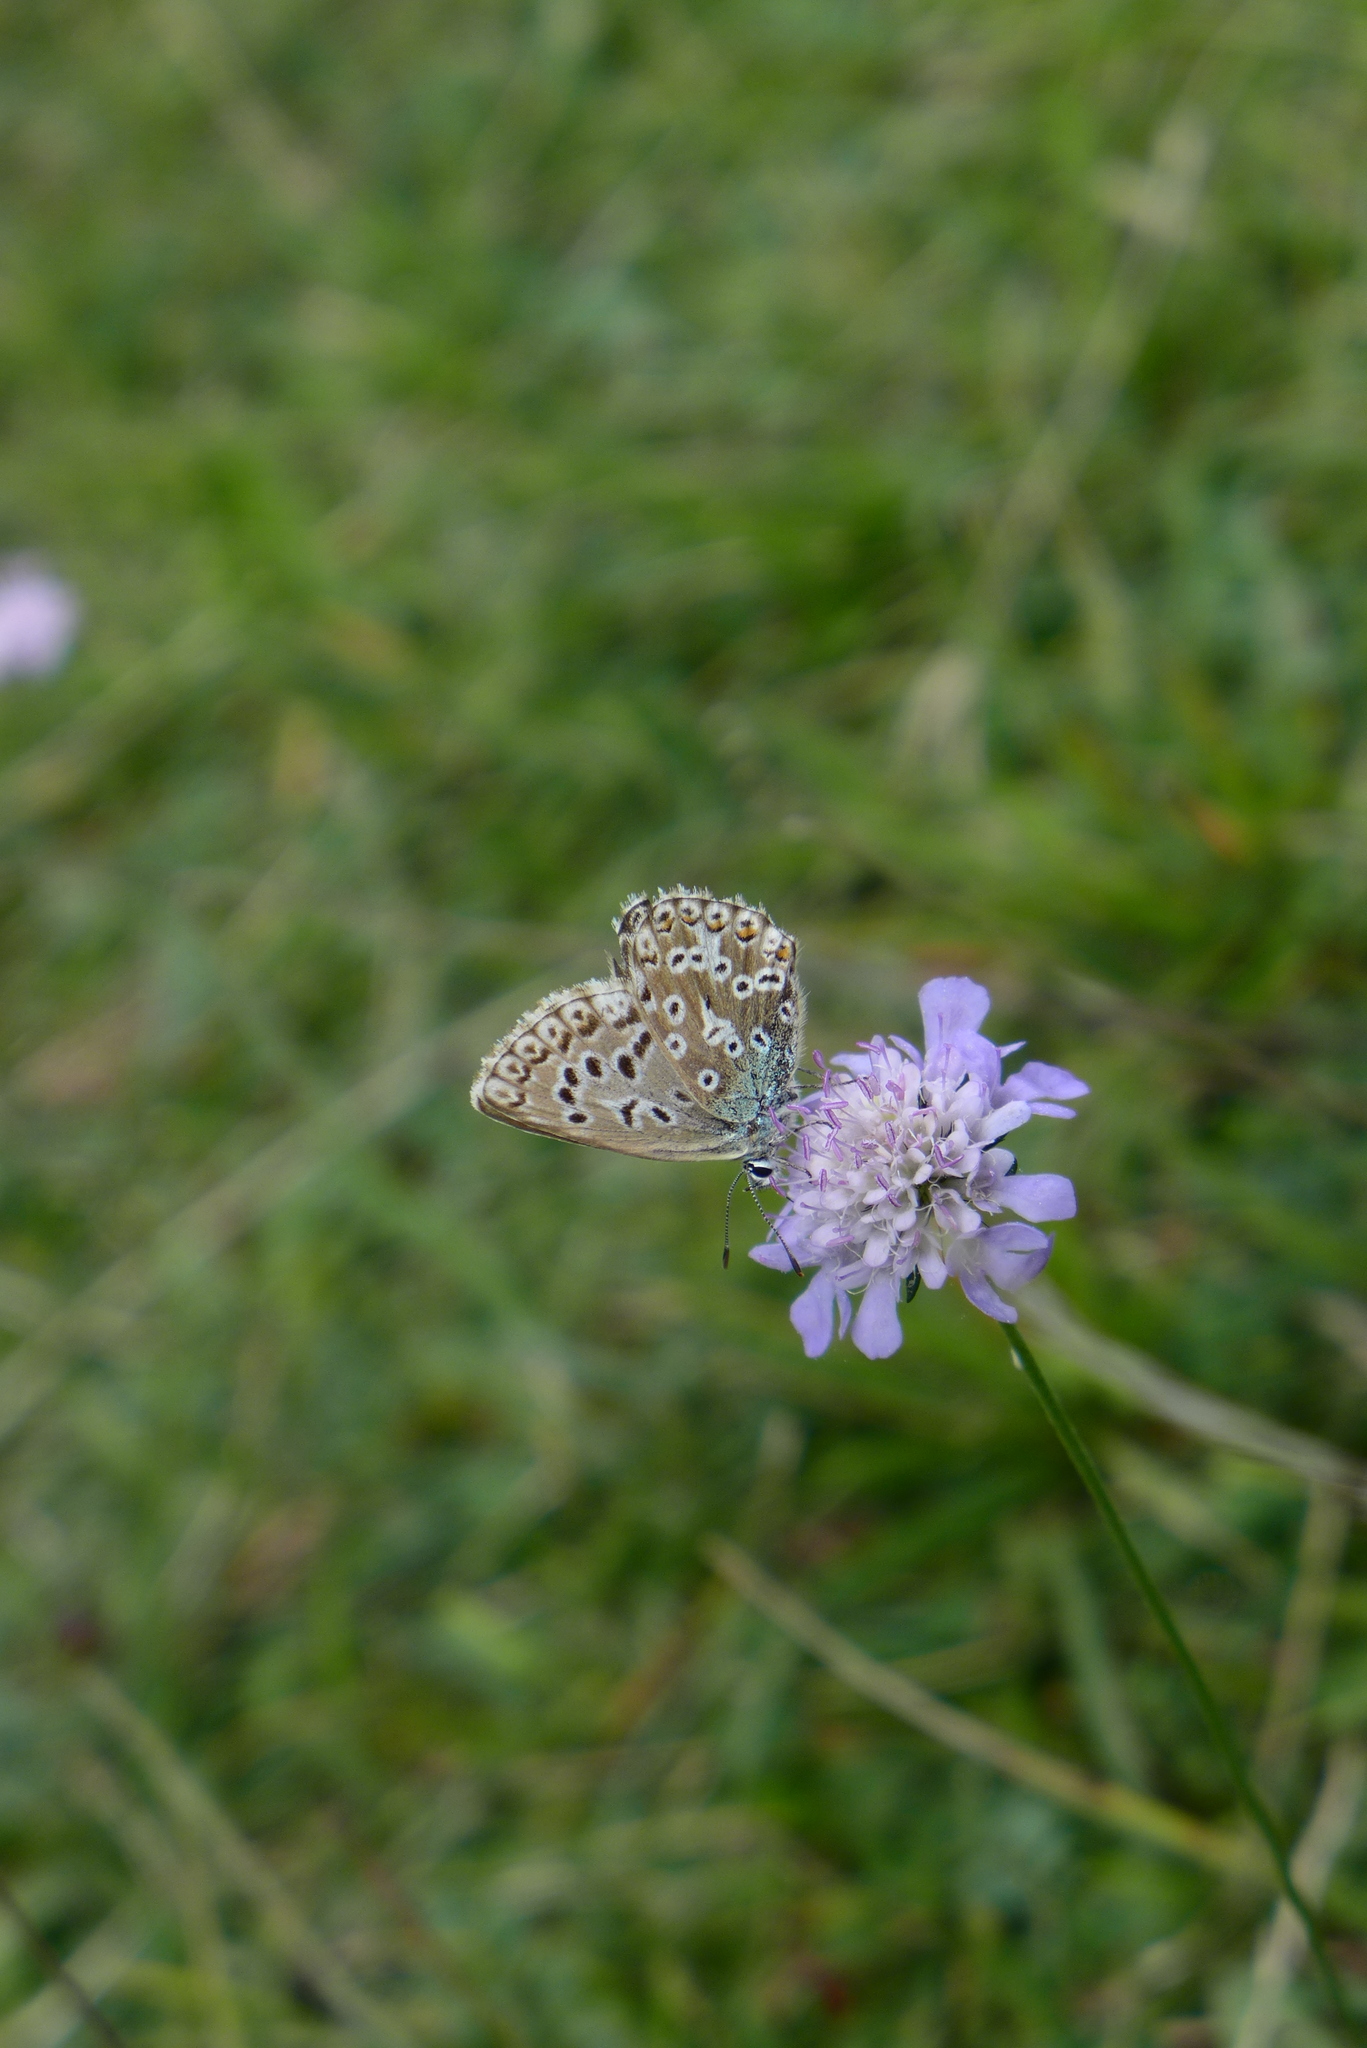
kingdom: Animalia
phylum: Arthropoda
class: Insecta
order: Lepidoptera
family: Lycaenidae
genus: Lysandra
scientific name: Lysandra coridon
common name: Chalkhill blue
